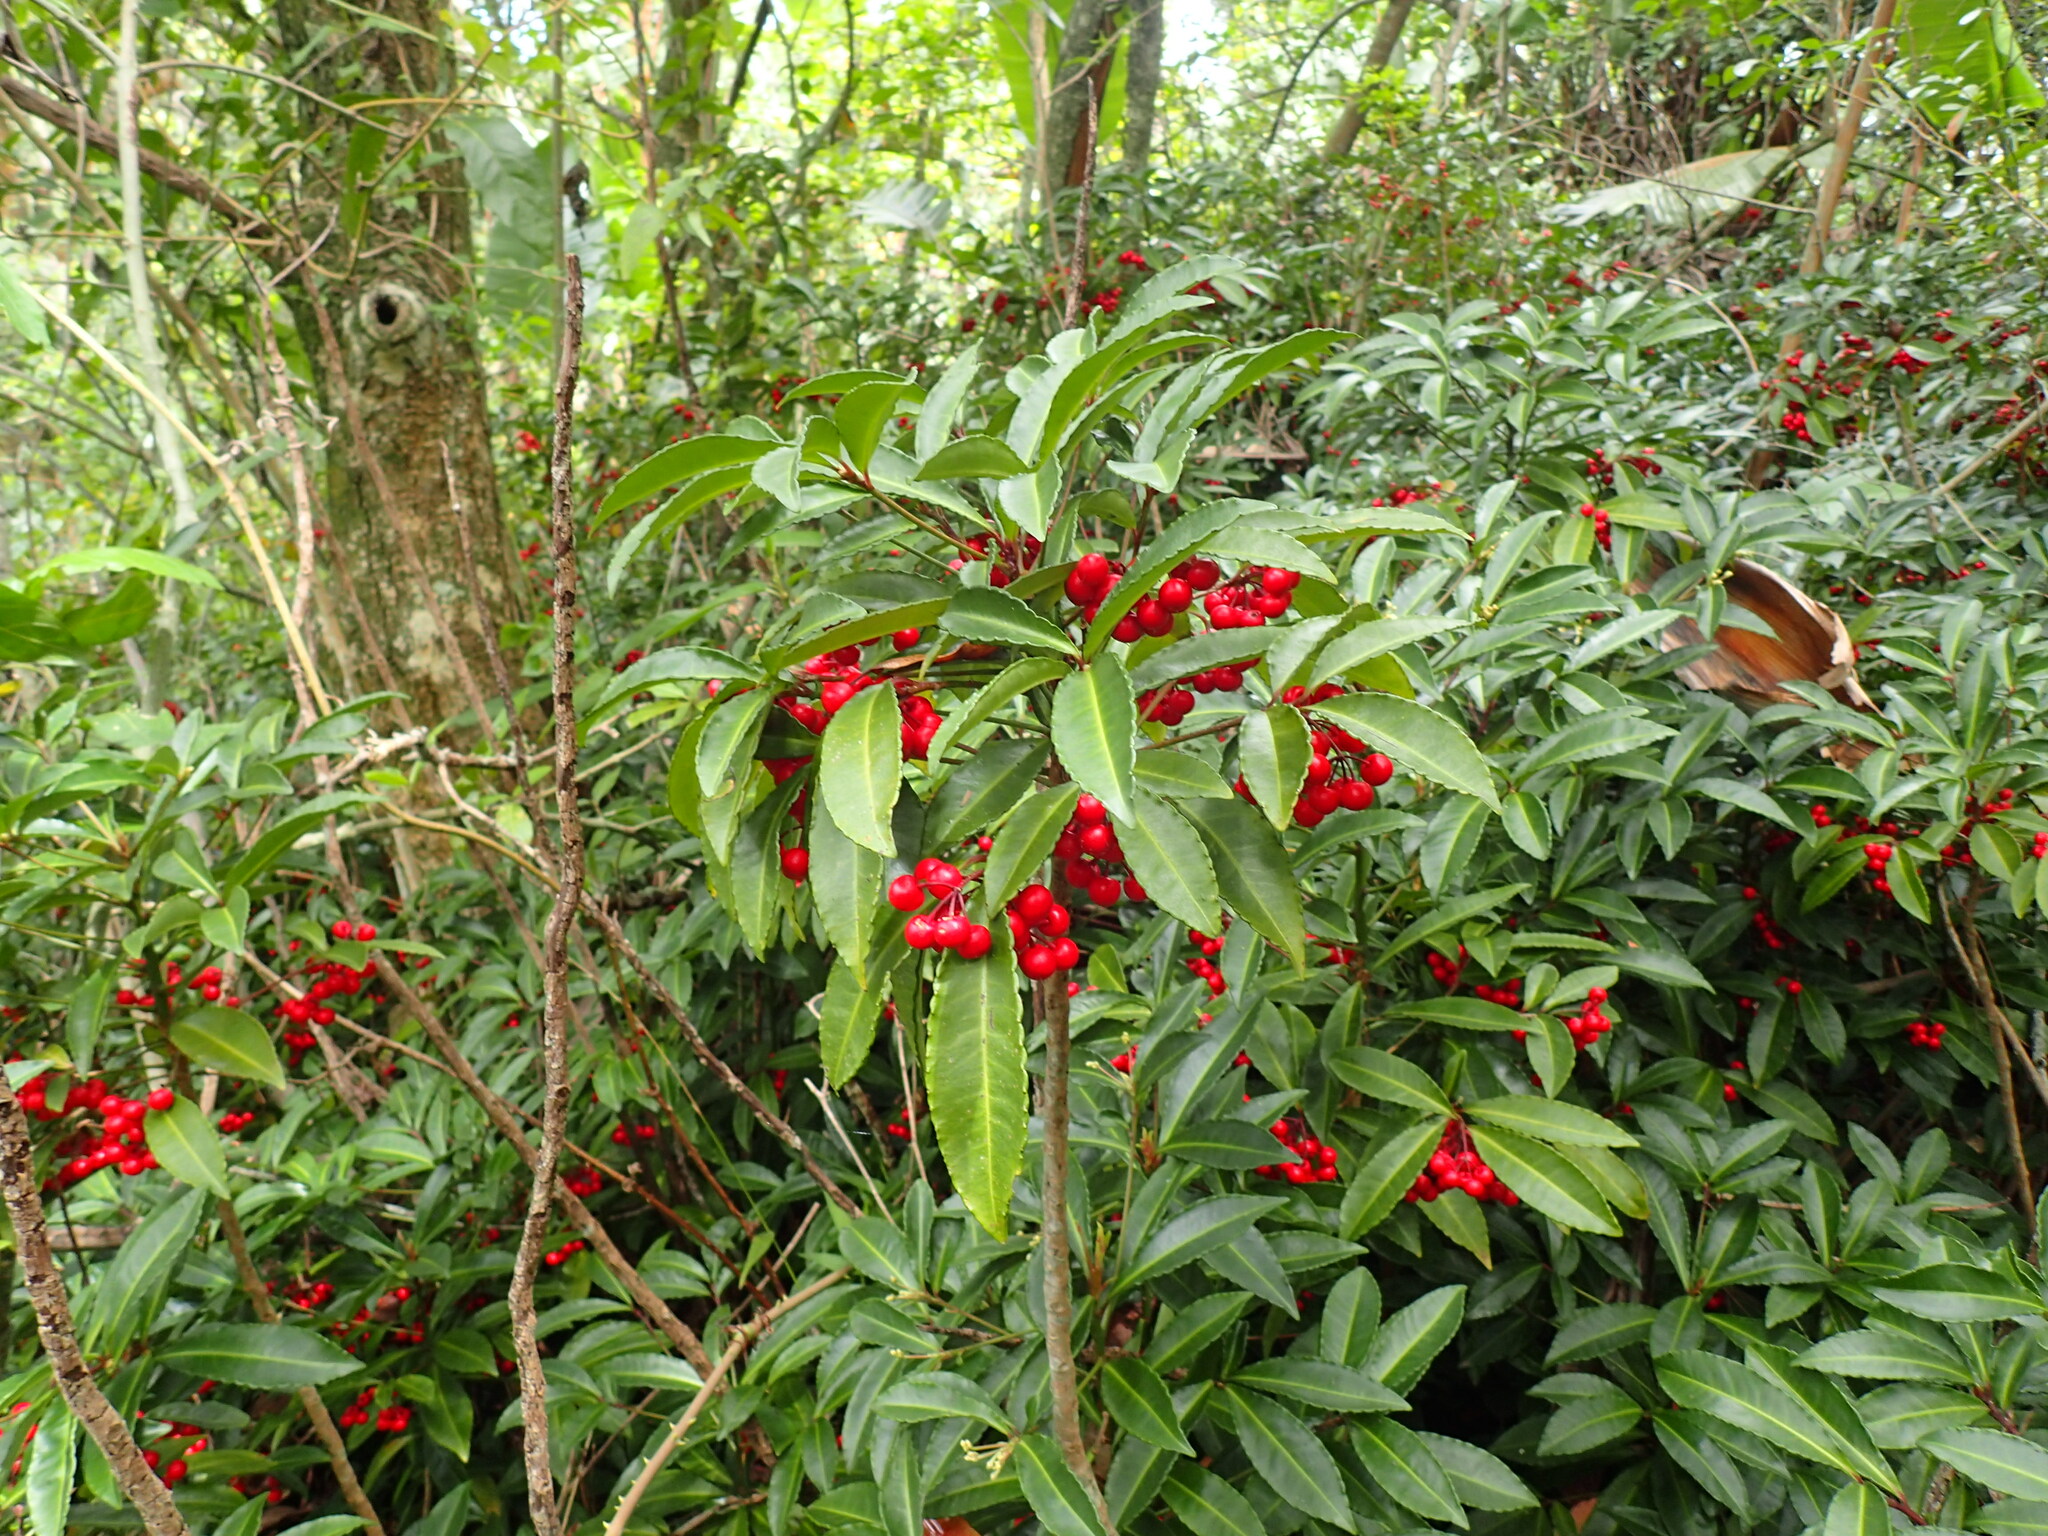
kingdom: Plantae
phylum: Tracheophyta
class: Magnoliopsida
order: Ericales
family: Primulaceae
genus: Ardisia
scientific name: Ardisia crenata
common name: Hen's eyes
